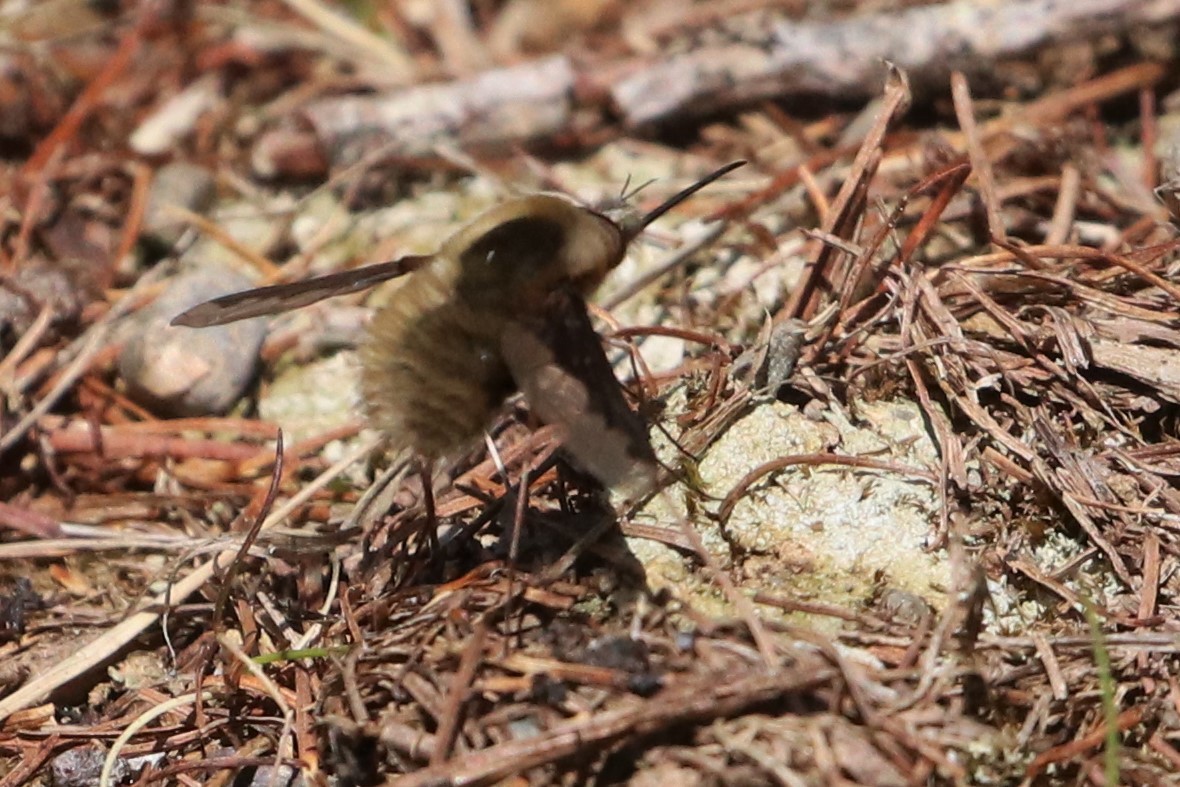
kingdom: Animalia
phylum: Arthropoda
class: Insecta
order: Diptera
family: Bombyliidae
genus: Bombylius
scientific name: Bombylius major
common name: Bee fly
